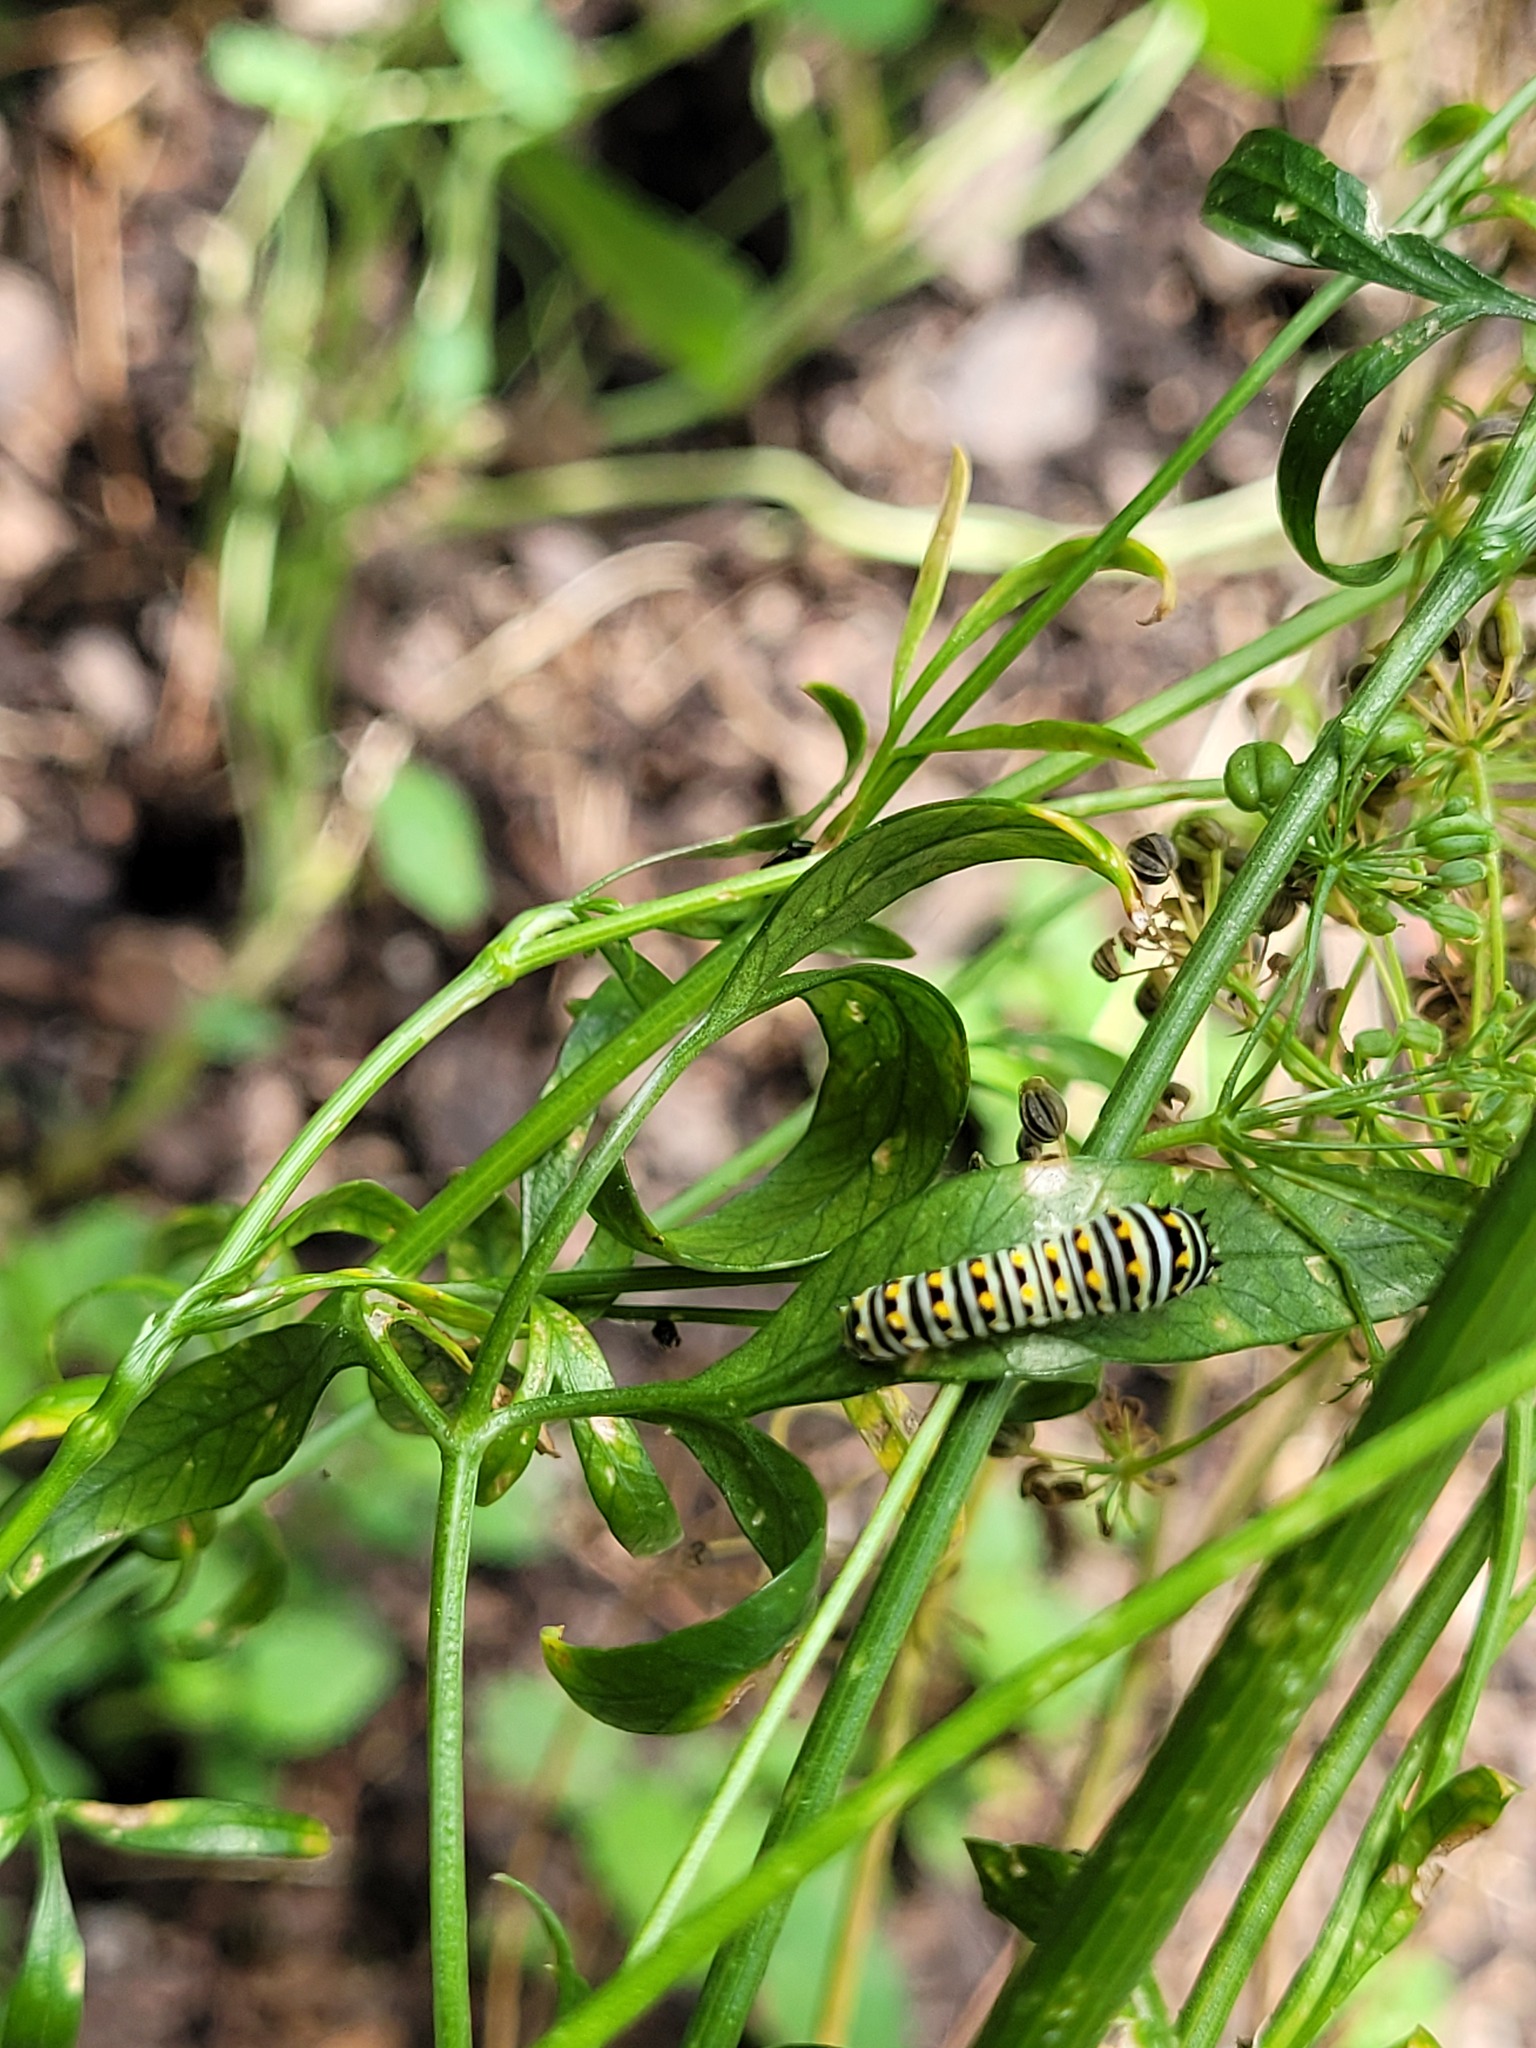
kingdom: Animalia
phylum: Arthropoda
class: Insecta
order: Lepidoptera
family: Papilionidae
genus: Papilio
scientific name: Papilio polyxenes
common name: Black swallowtail
